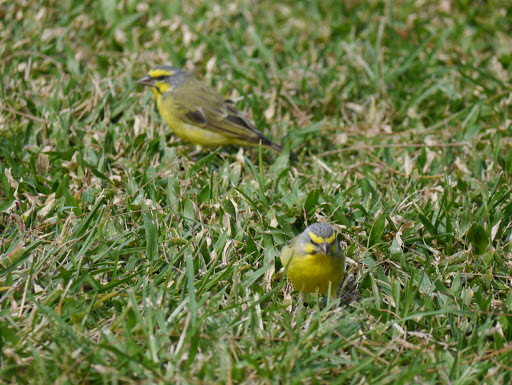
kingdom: Animalia
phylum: Chordata
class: Aves
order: Passeriformes
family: Fringillidae
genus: Crithagra
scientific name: Crithagra mozambica
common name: Yellow-fronted canary
